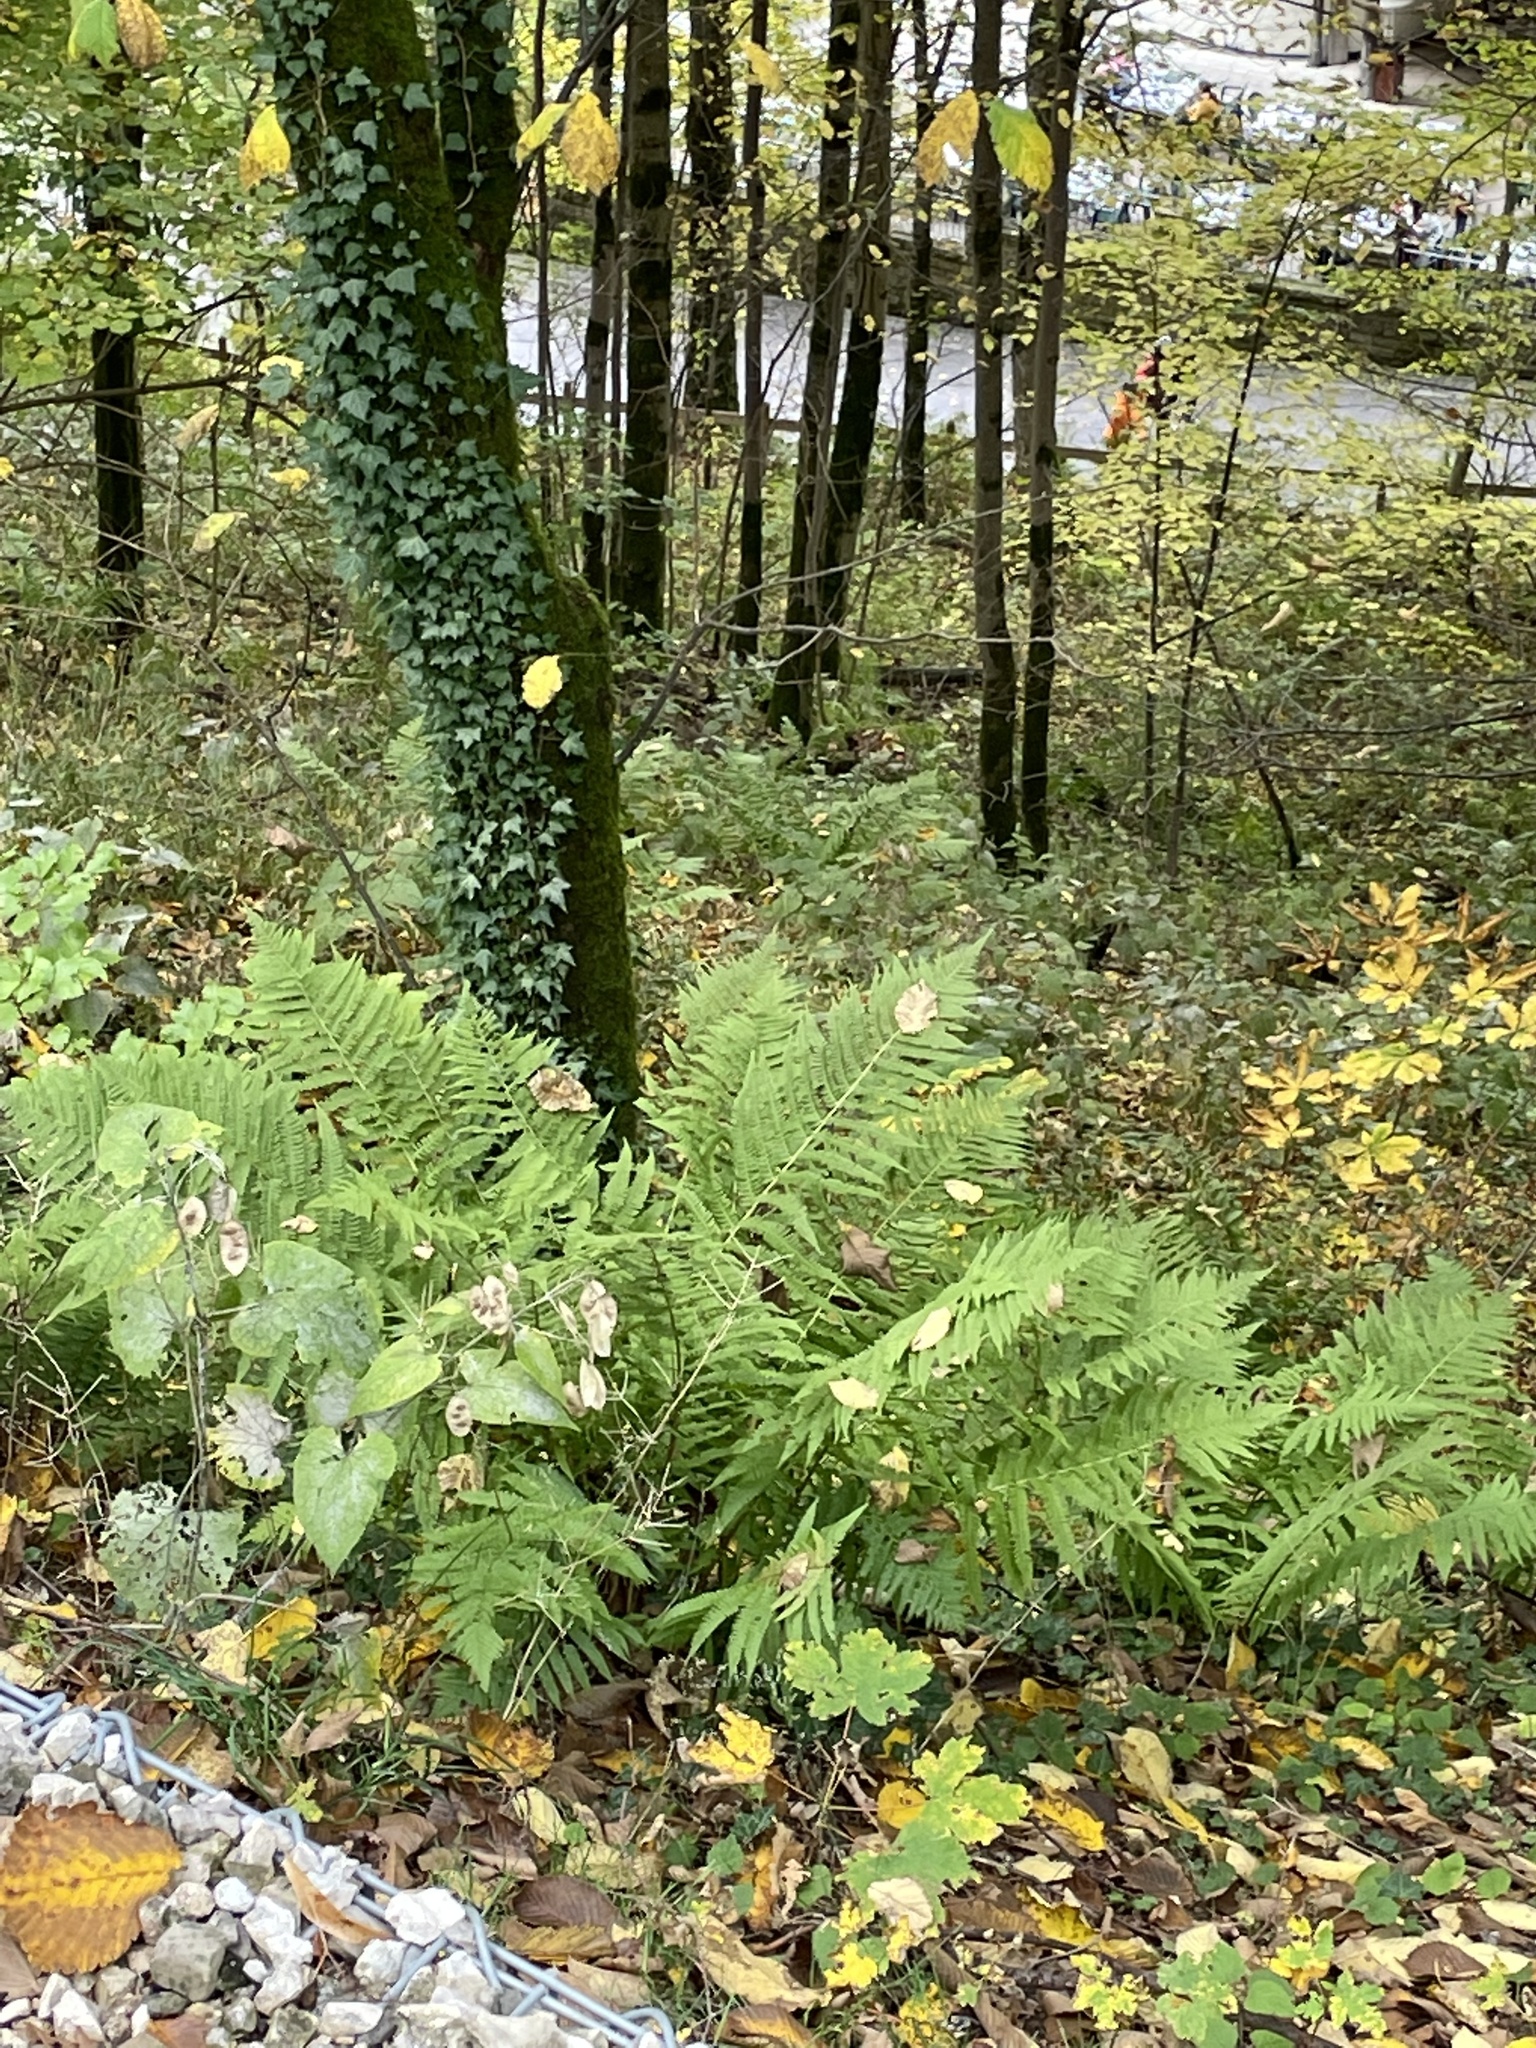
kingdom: Plantae
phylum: Tracheophyta
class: Magnoliopsida
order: Brassicales
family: Brassicaceae
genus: Lunaria
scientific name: Lunaria rediviva
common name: Perennial honesty
